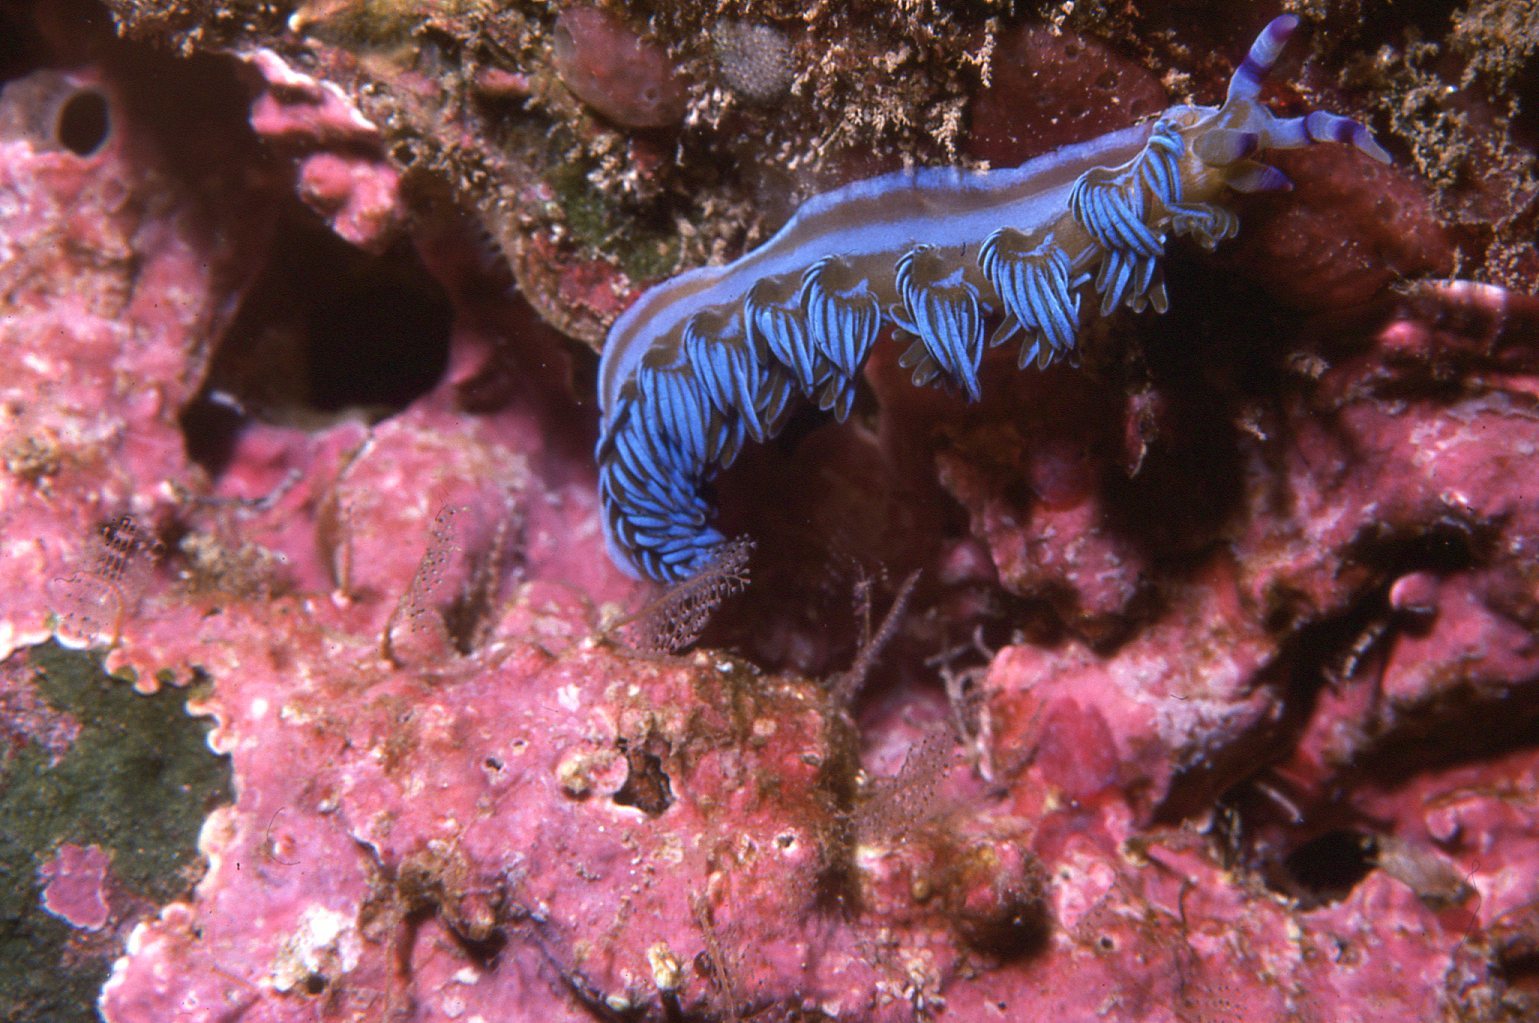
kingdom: Animalia
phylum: Mollusca
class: Gastropoda
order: Nudibranchia
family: Facelinidae
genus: Pteraeolidia
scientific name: Pteraeolidia ianthina
